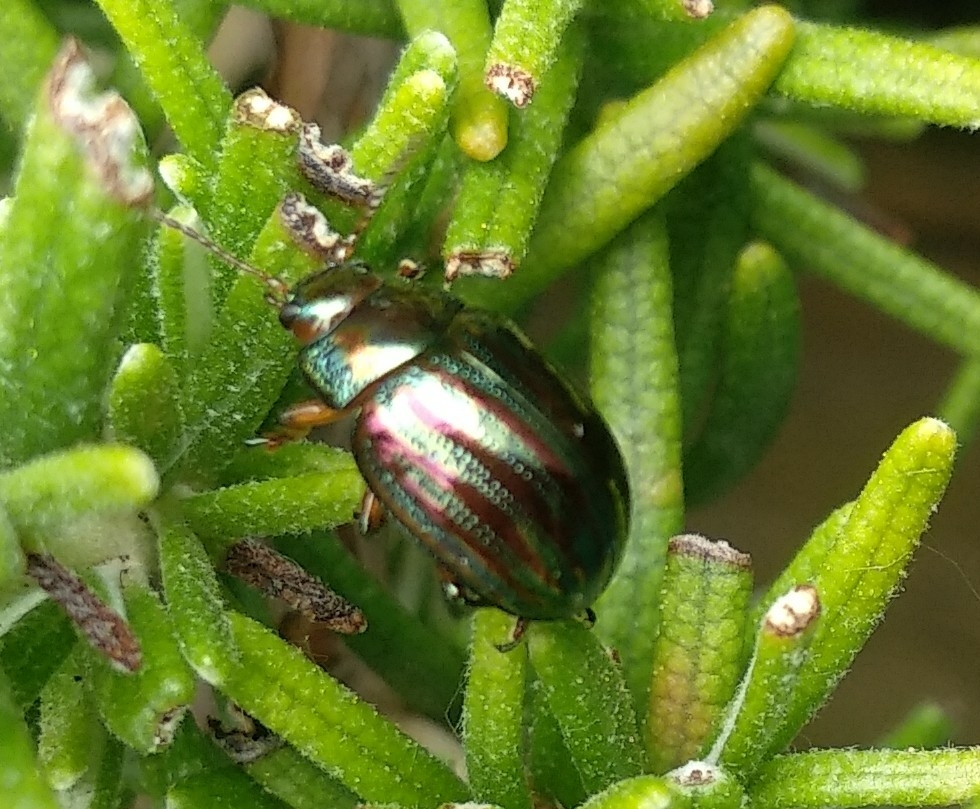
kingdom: Animalia
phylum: Arthropoda
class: Insecta
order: Coleoptera
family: Chrysomelidae
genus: Chrysolina
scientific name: Chrysolina americana
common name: Rosemary beetle
